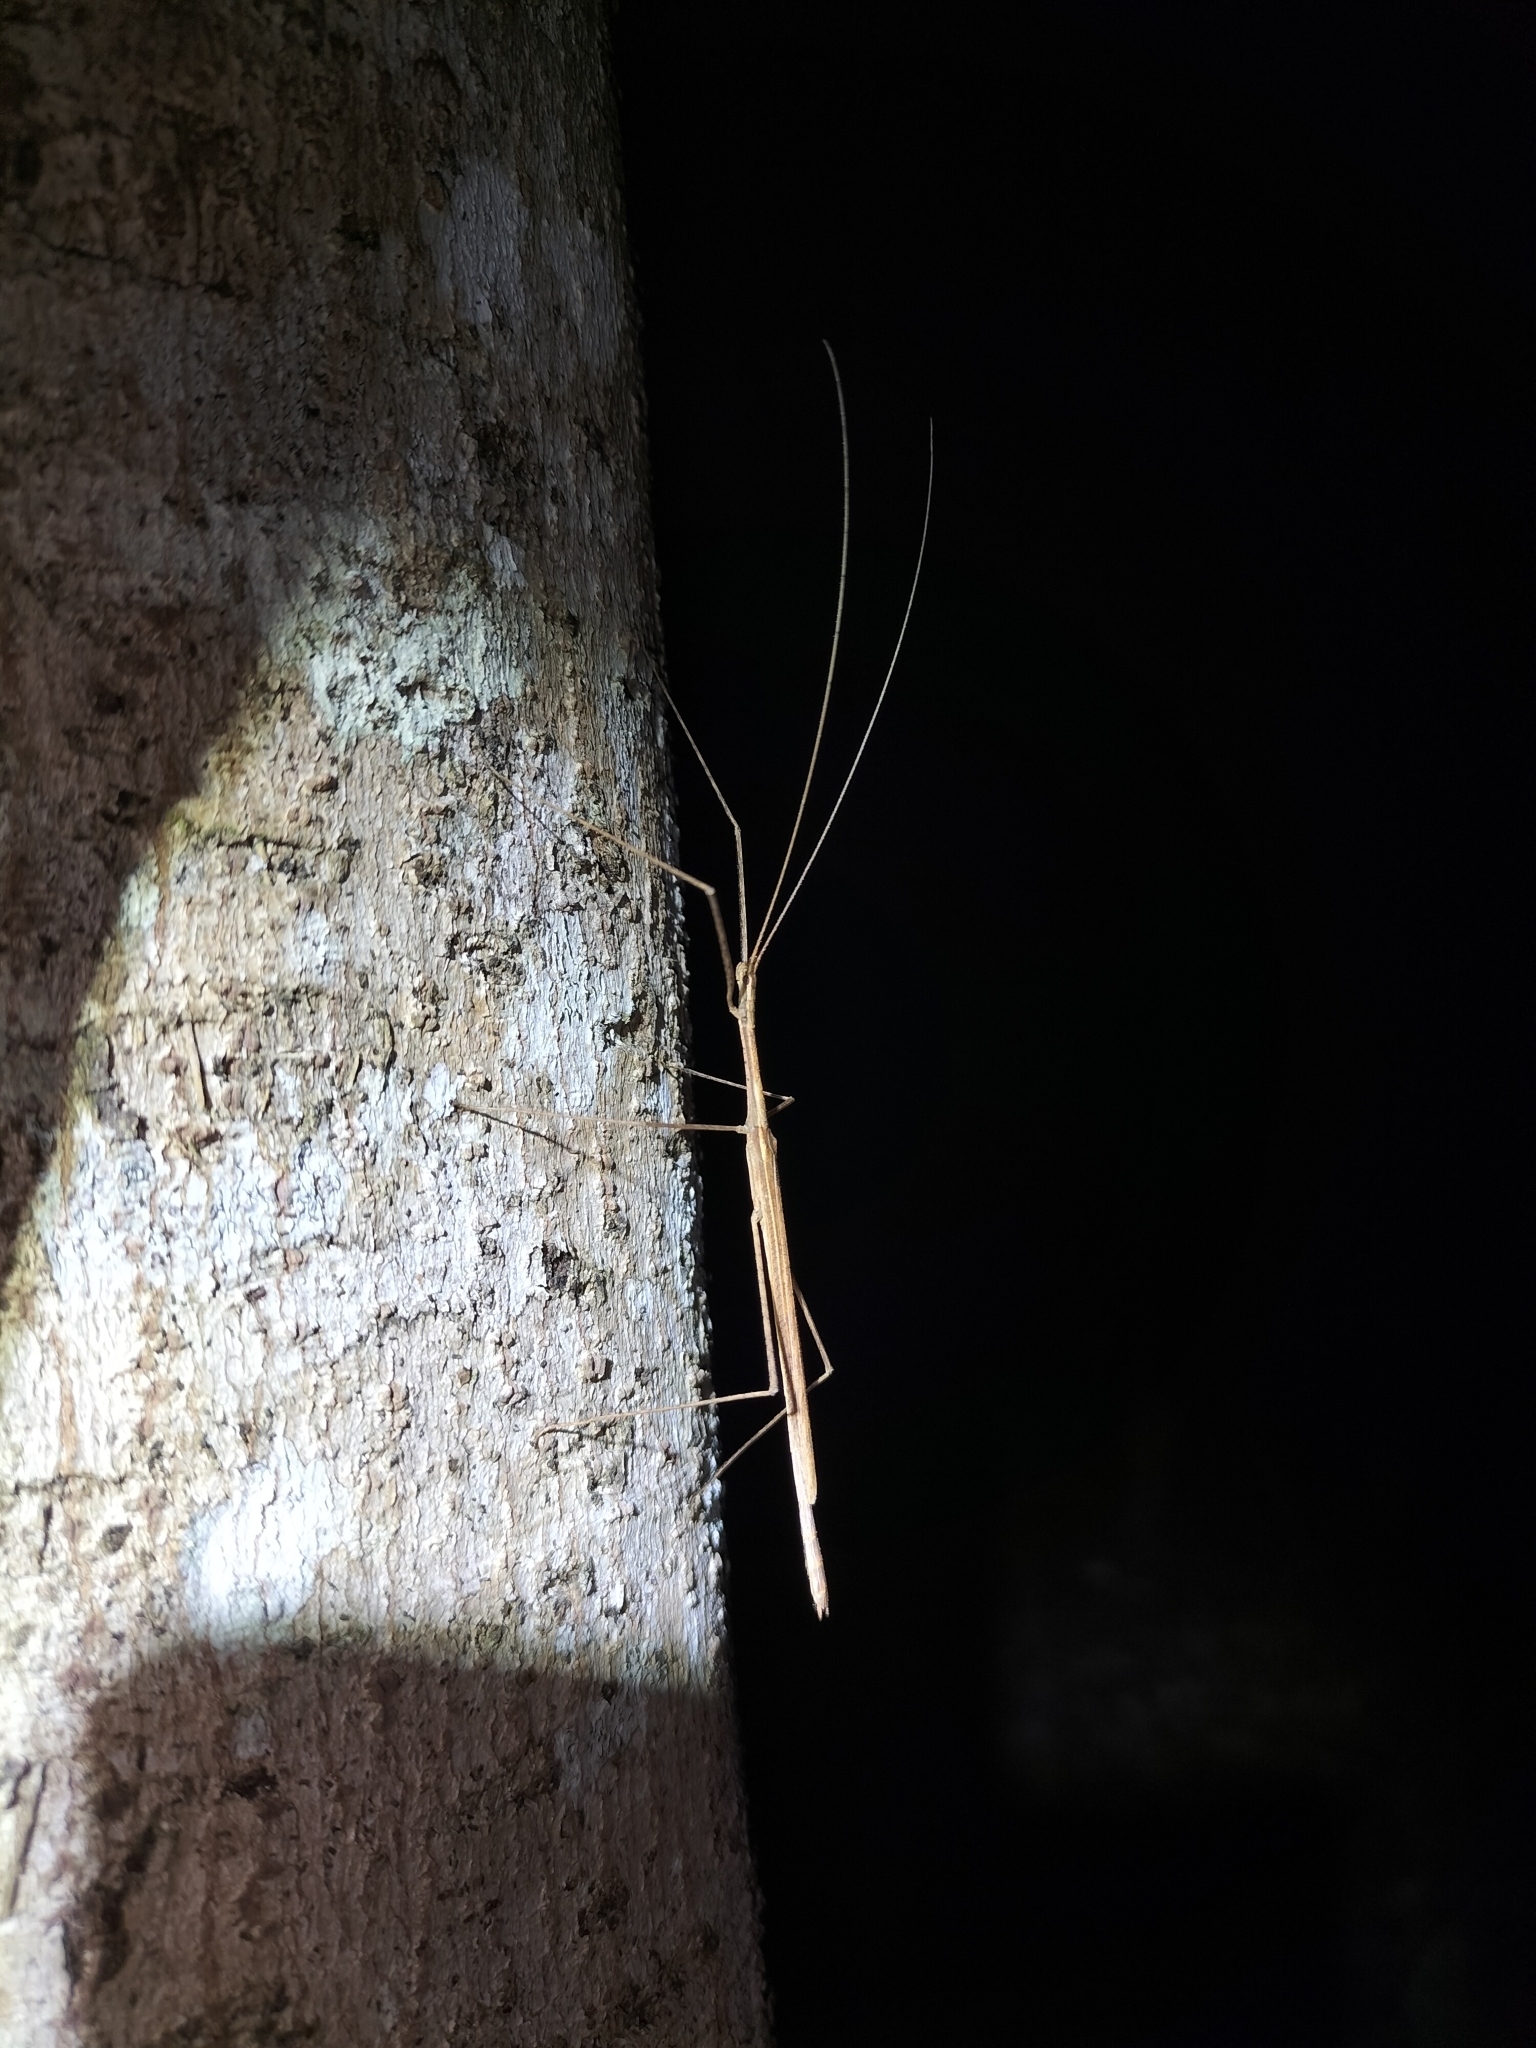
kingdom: Animalia
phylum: Arthropoda
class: Insecta
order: Phasmida
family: Lonchodidae
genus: Sipyloidea
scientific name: Sipyloidea larryi
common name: Hurricane larry stick-insect
